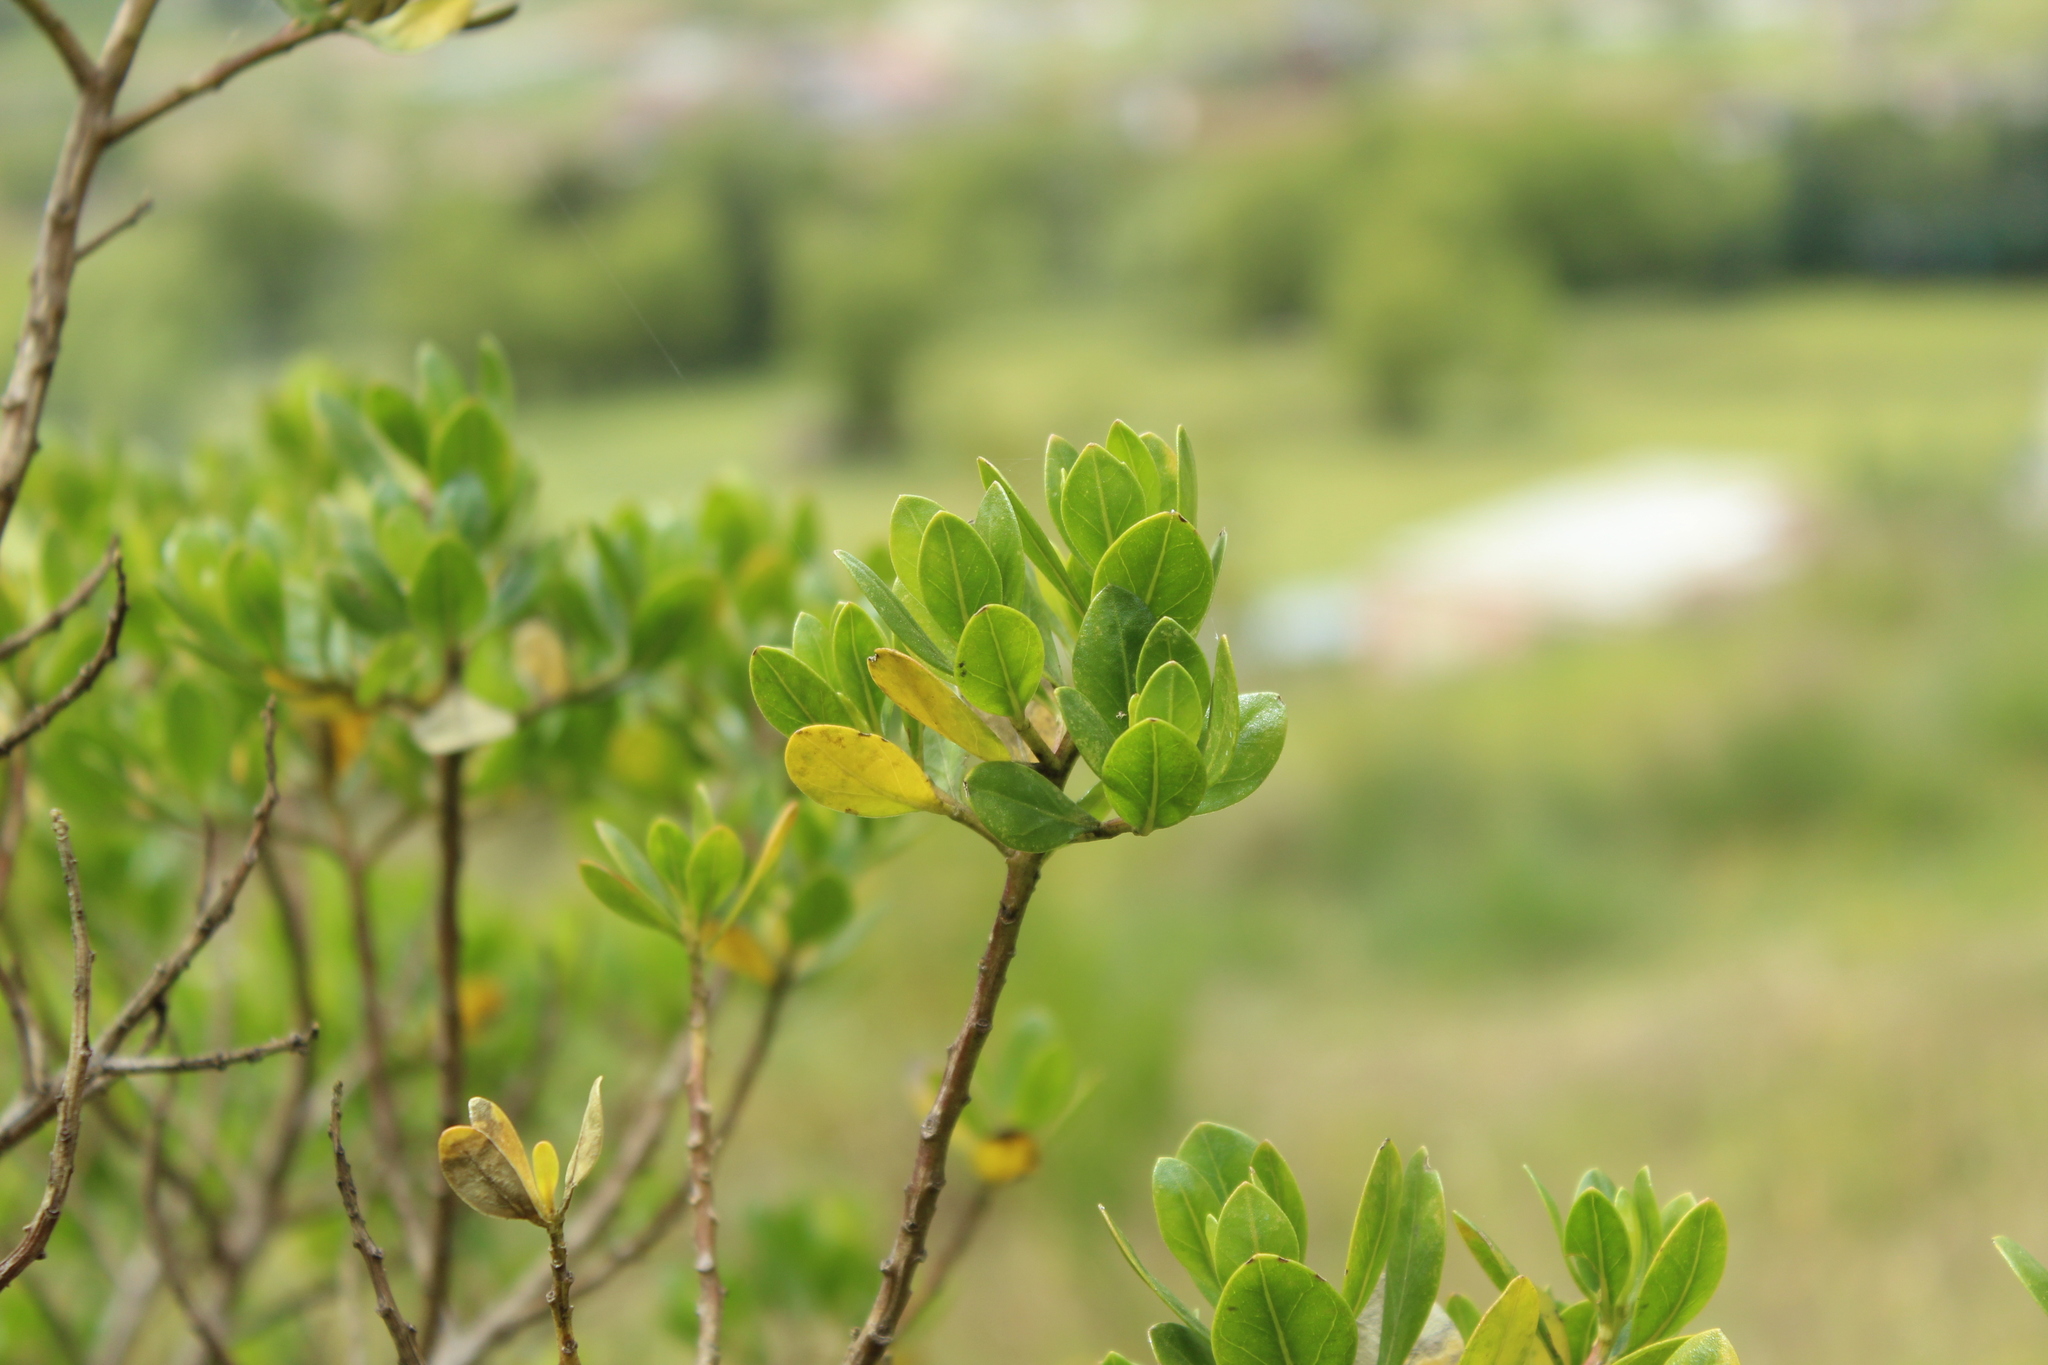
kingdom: Plantae
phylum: Tracheophyta
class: Magnoliopsida
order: Asterales
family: Asteraceae
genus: Baccharis
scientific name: Baccharis macrantha
